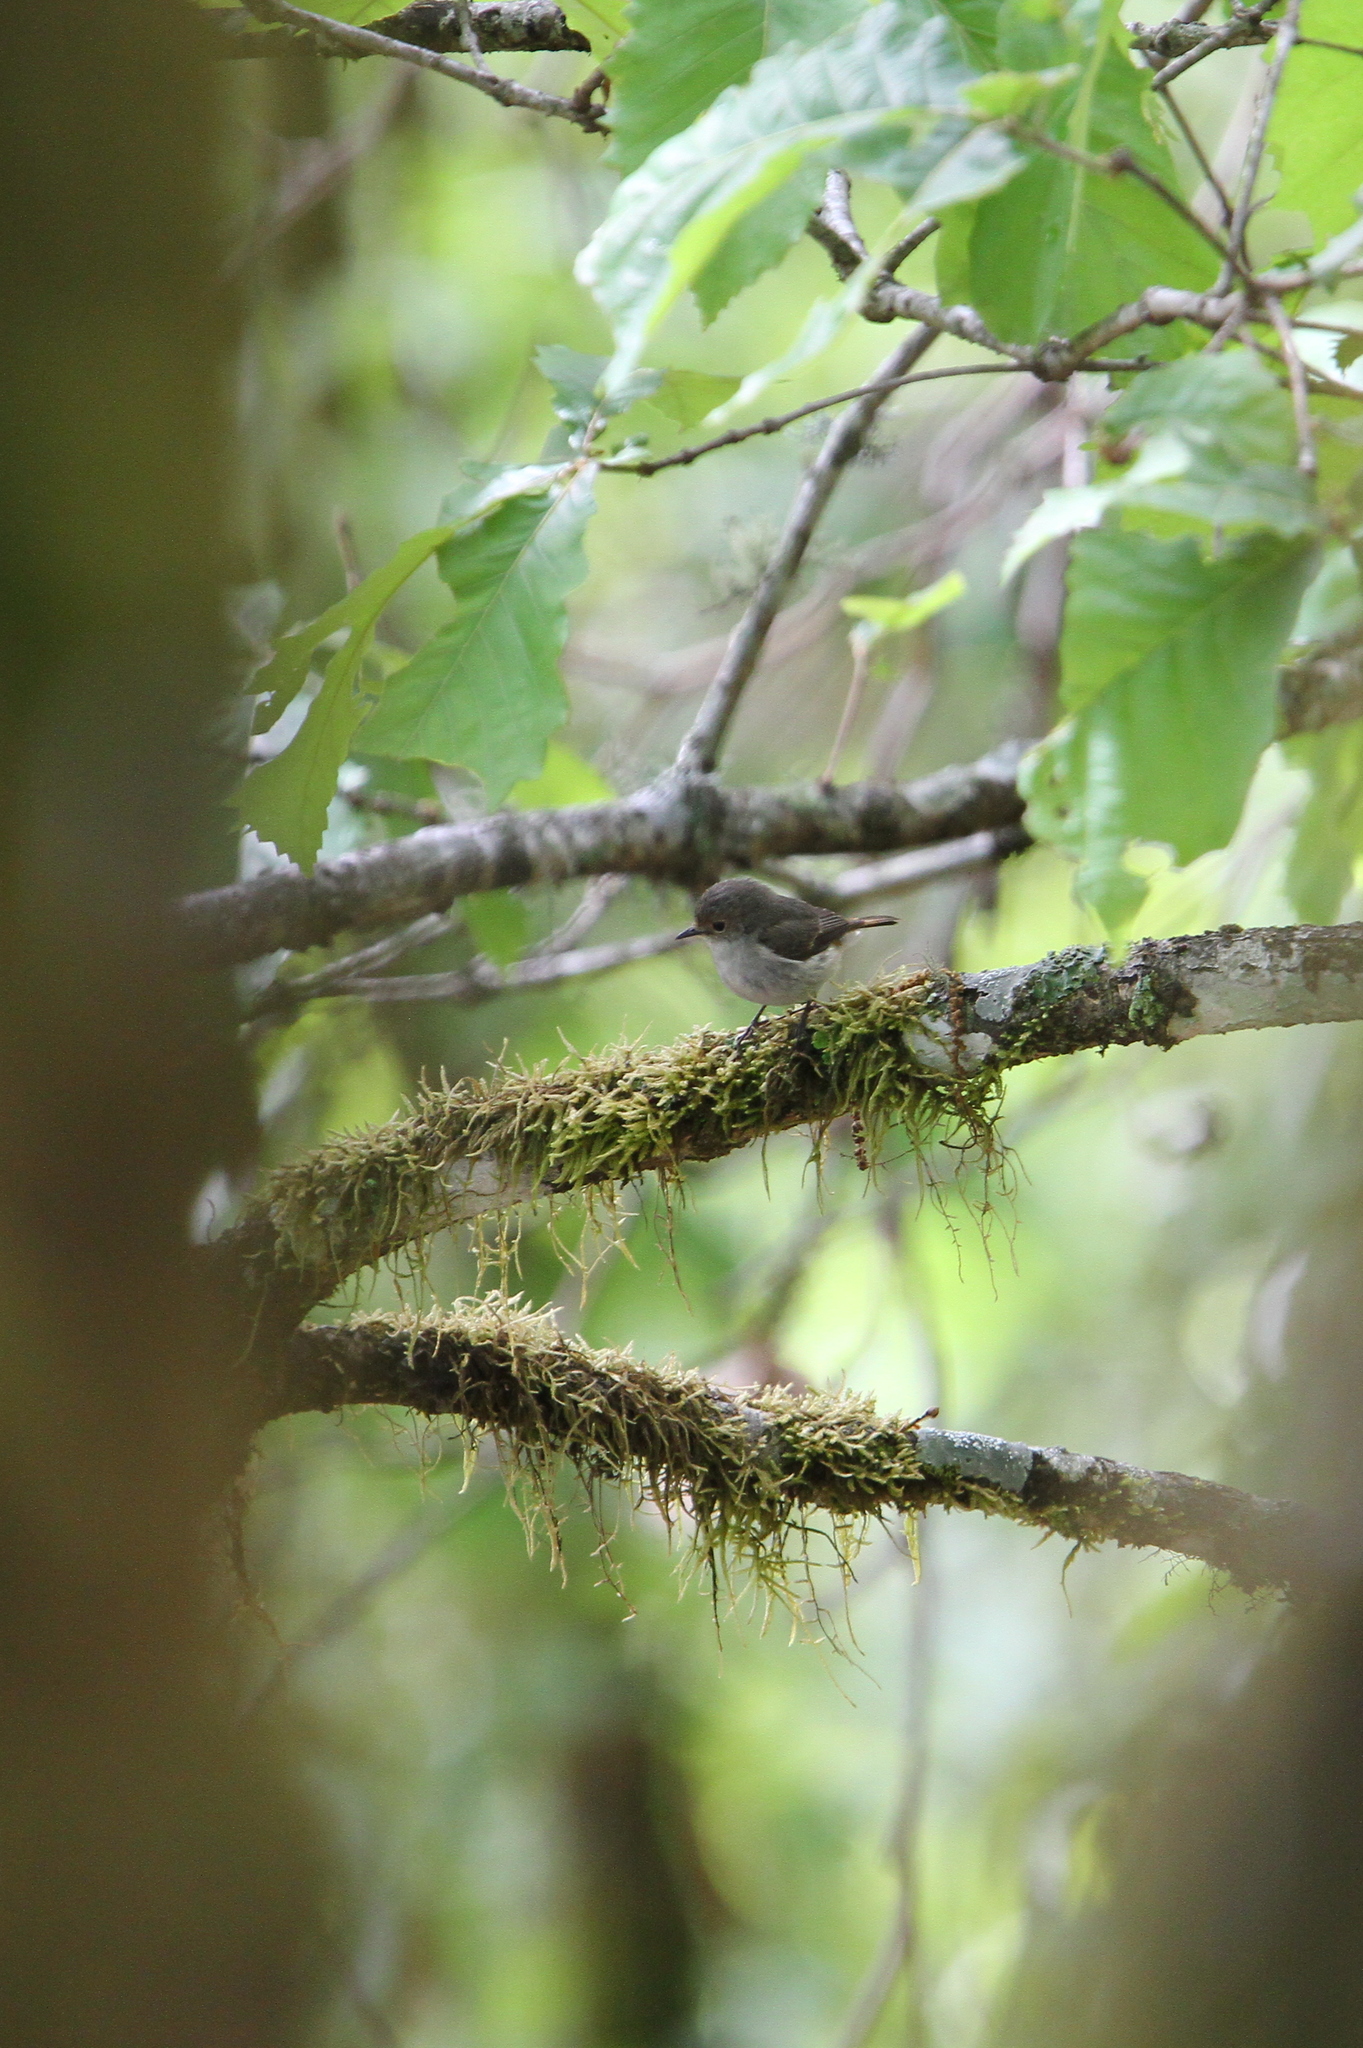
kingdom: Animalia
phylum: Chordata
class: Aves
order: Passeriformes
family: Muscicapidae
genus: Ficedula
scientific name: Ficedula superciliaris
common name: Ultramarine flycatcher
